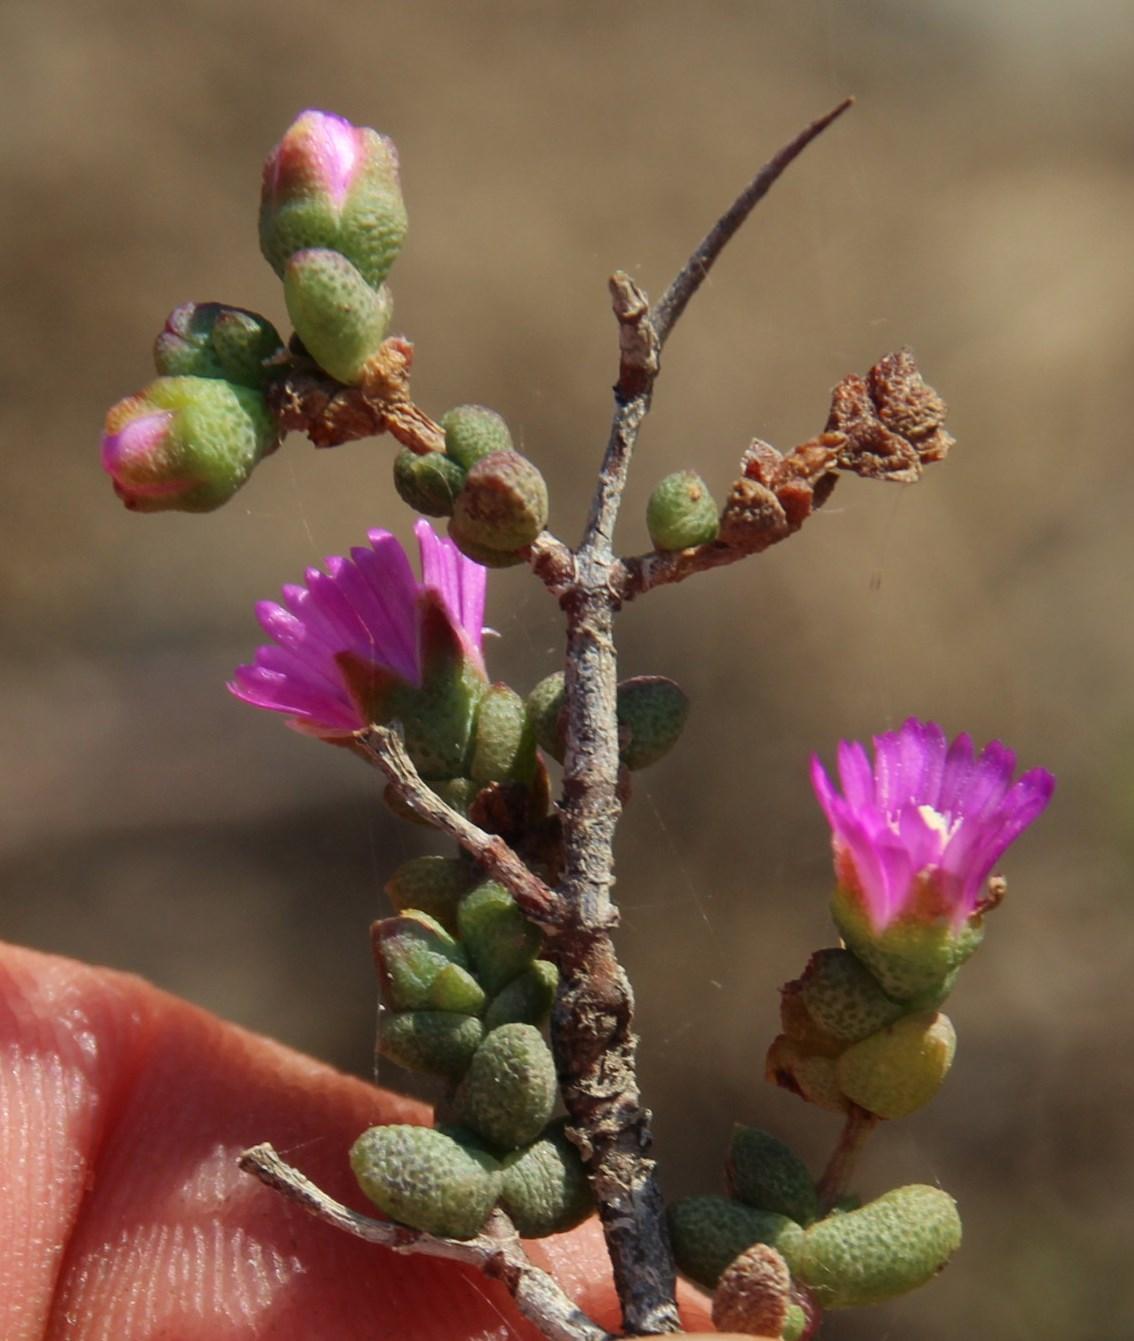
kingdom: Plantae
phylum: Tracheophyta
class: Magnoliopsida
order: Caryophyllales
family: Aizoaceae
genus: Ruschia
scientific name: Ruschia cradockensis
